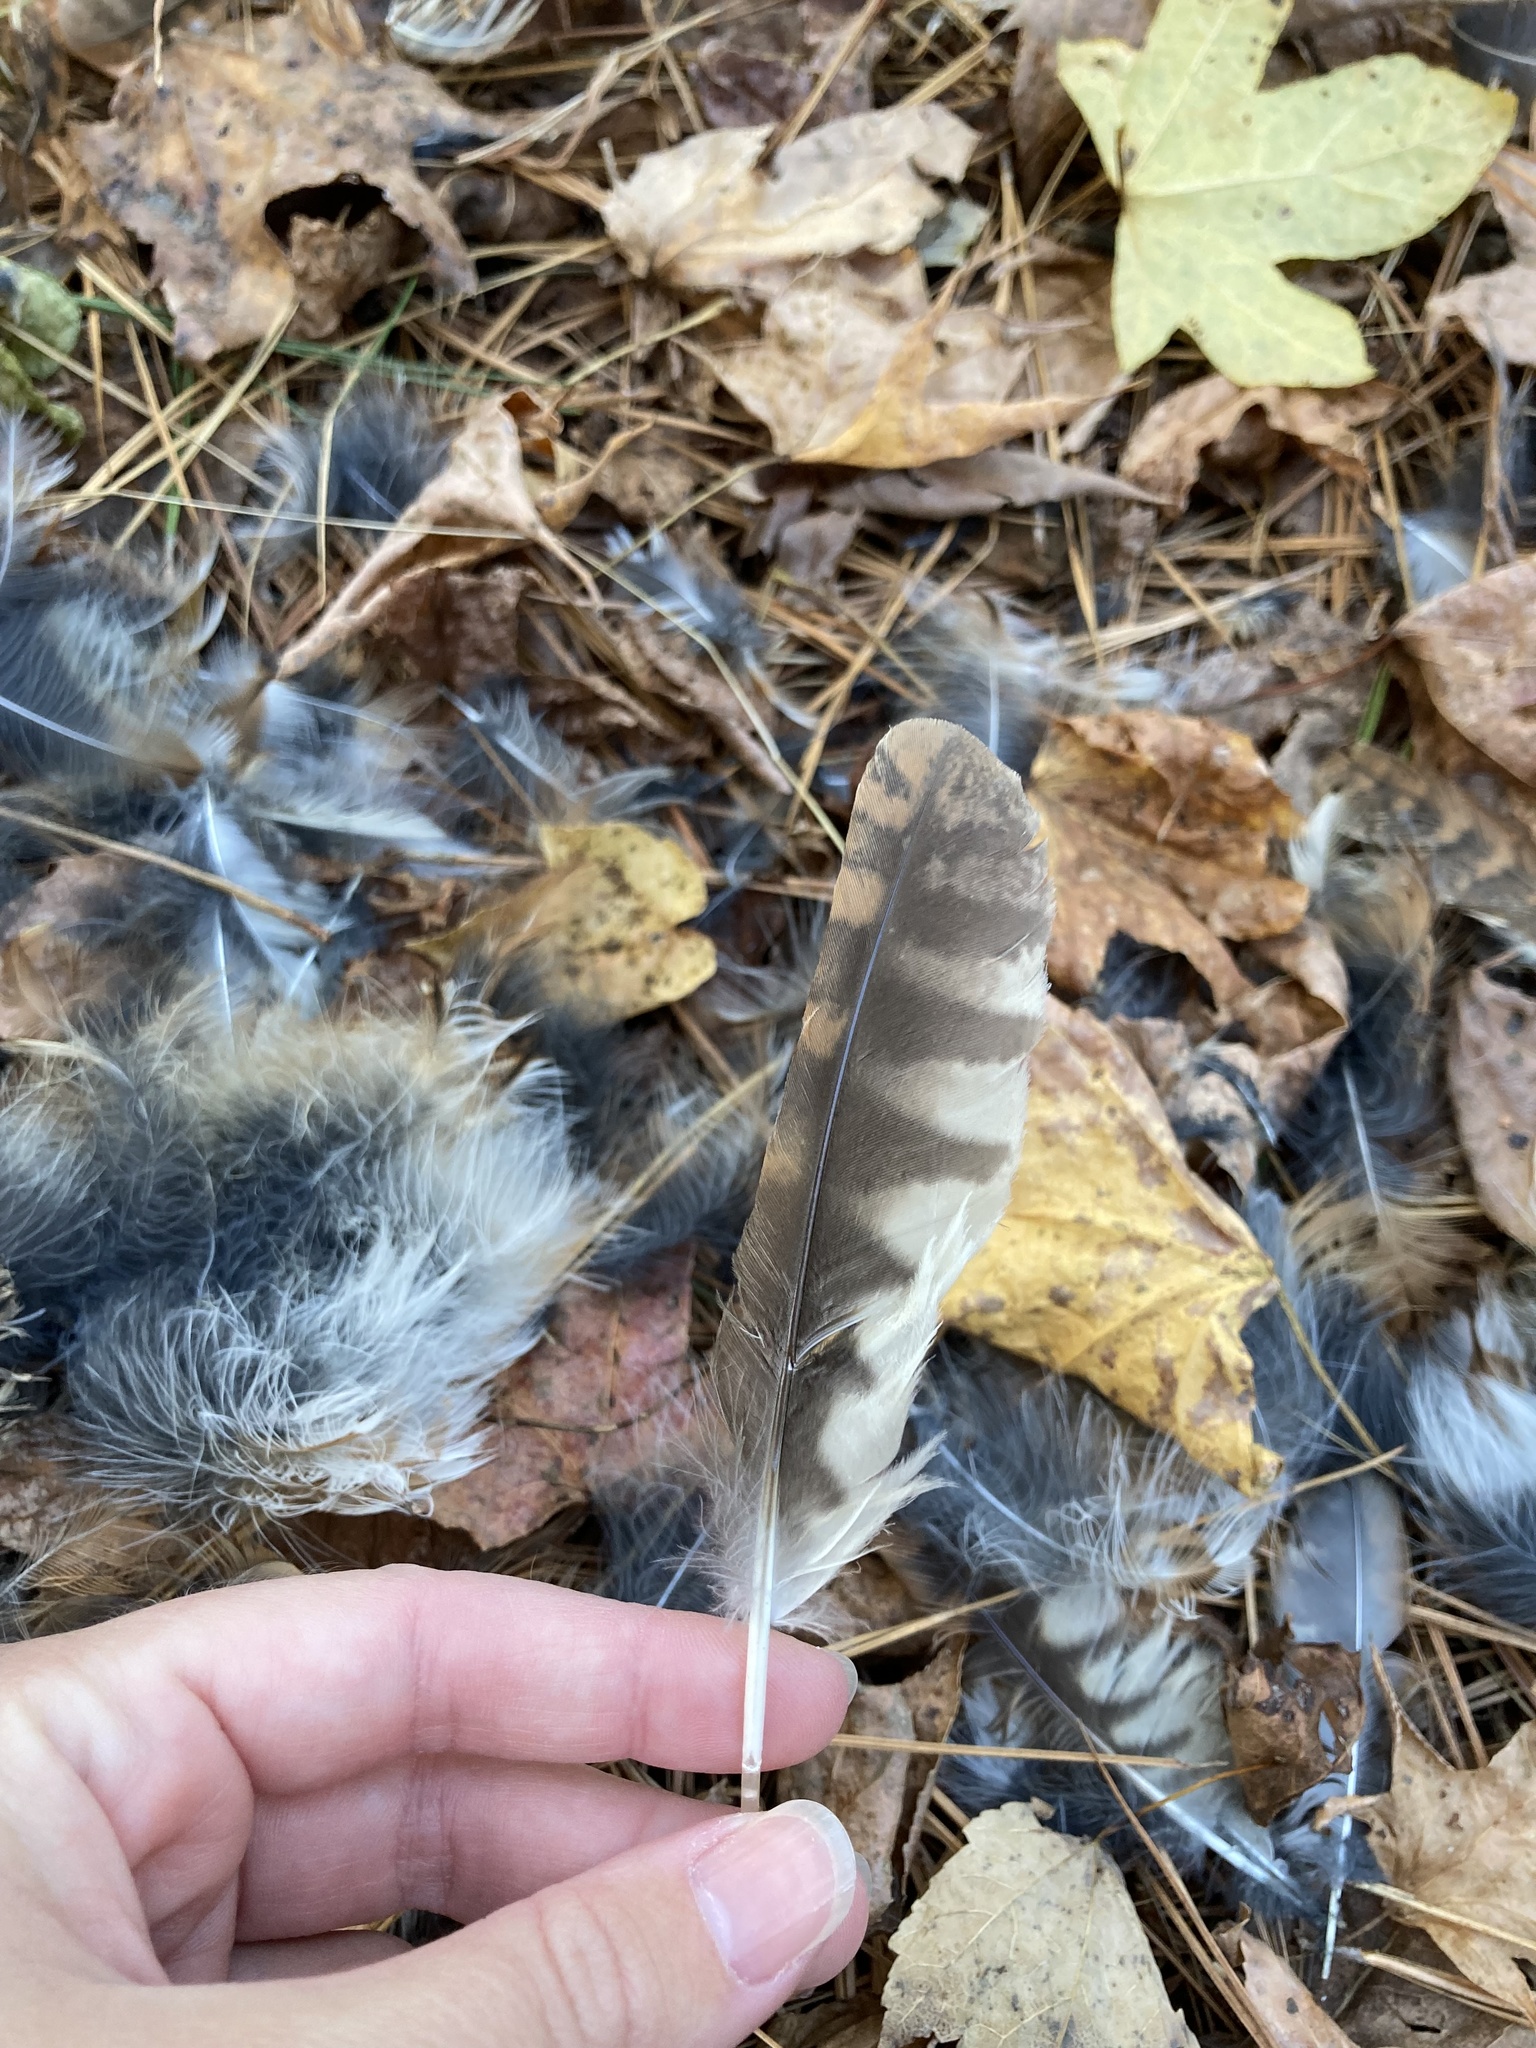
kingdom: Animalia
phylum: Chordata
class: Aves
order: Strigiformes
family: Strigidae
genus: Megascops
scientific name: Megascops asio
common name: Eastern screech-owl
